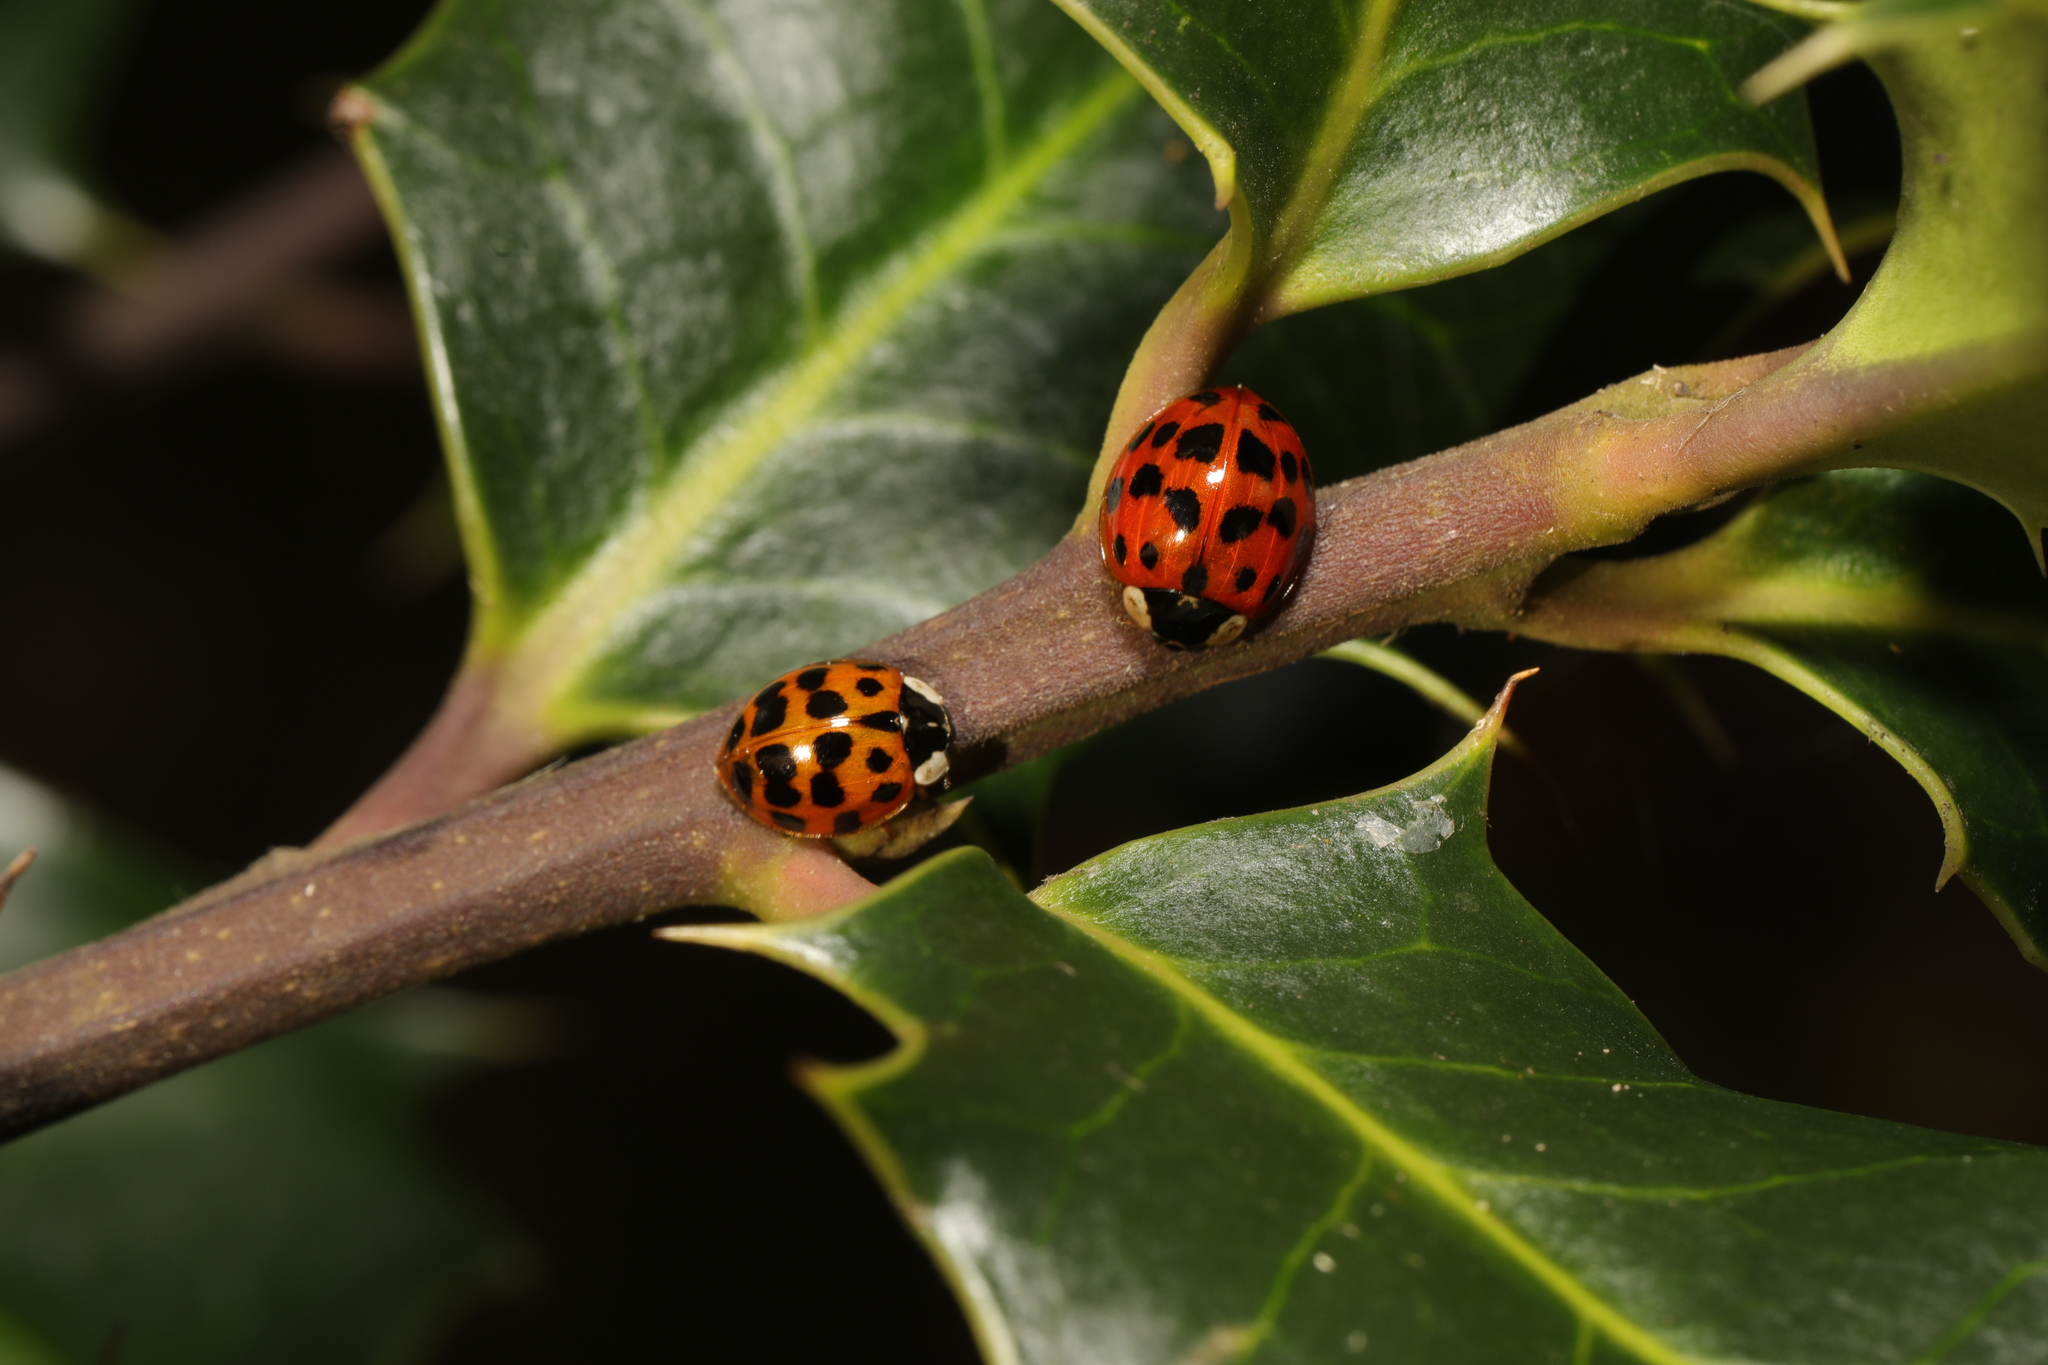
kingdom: Animalia
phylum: Arthropoda
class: Insecta
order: Coleoptera
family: Coccinellidae
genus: Harmonia
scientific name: Harmonia axyridis
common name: Harlequin ladybird
